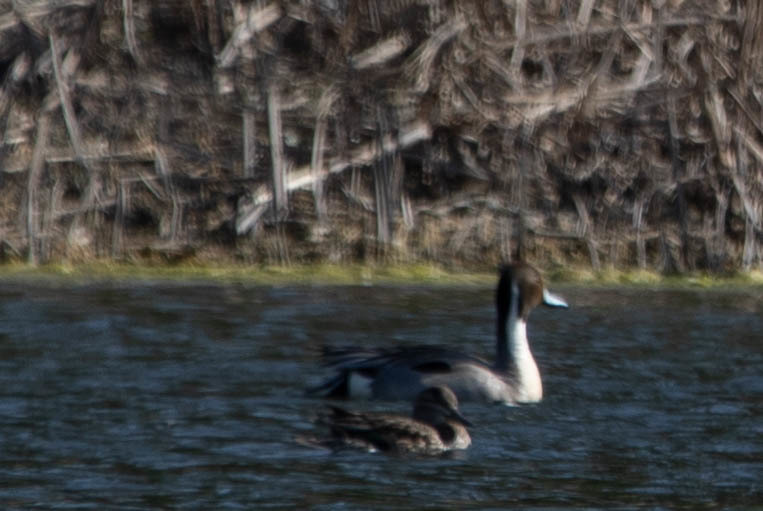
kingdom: Animalia
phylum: Chordata
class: Aves
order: Anseriformes
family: Anatidae
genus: Anas
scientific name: Anas acuta
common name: Northern pintail
